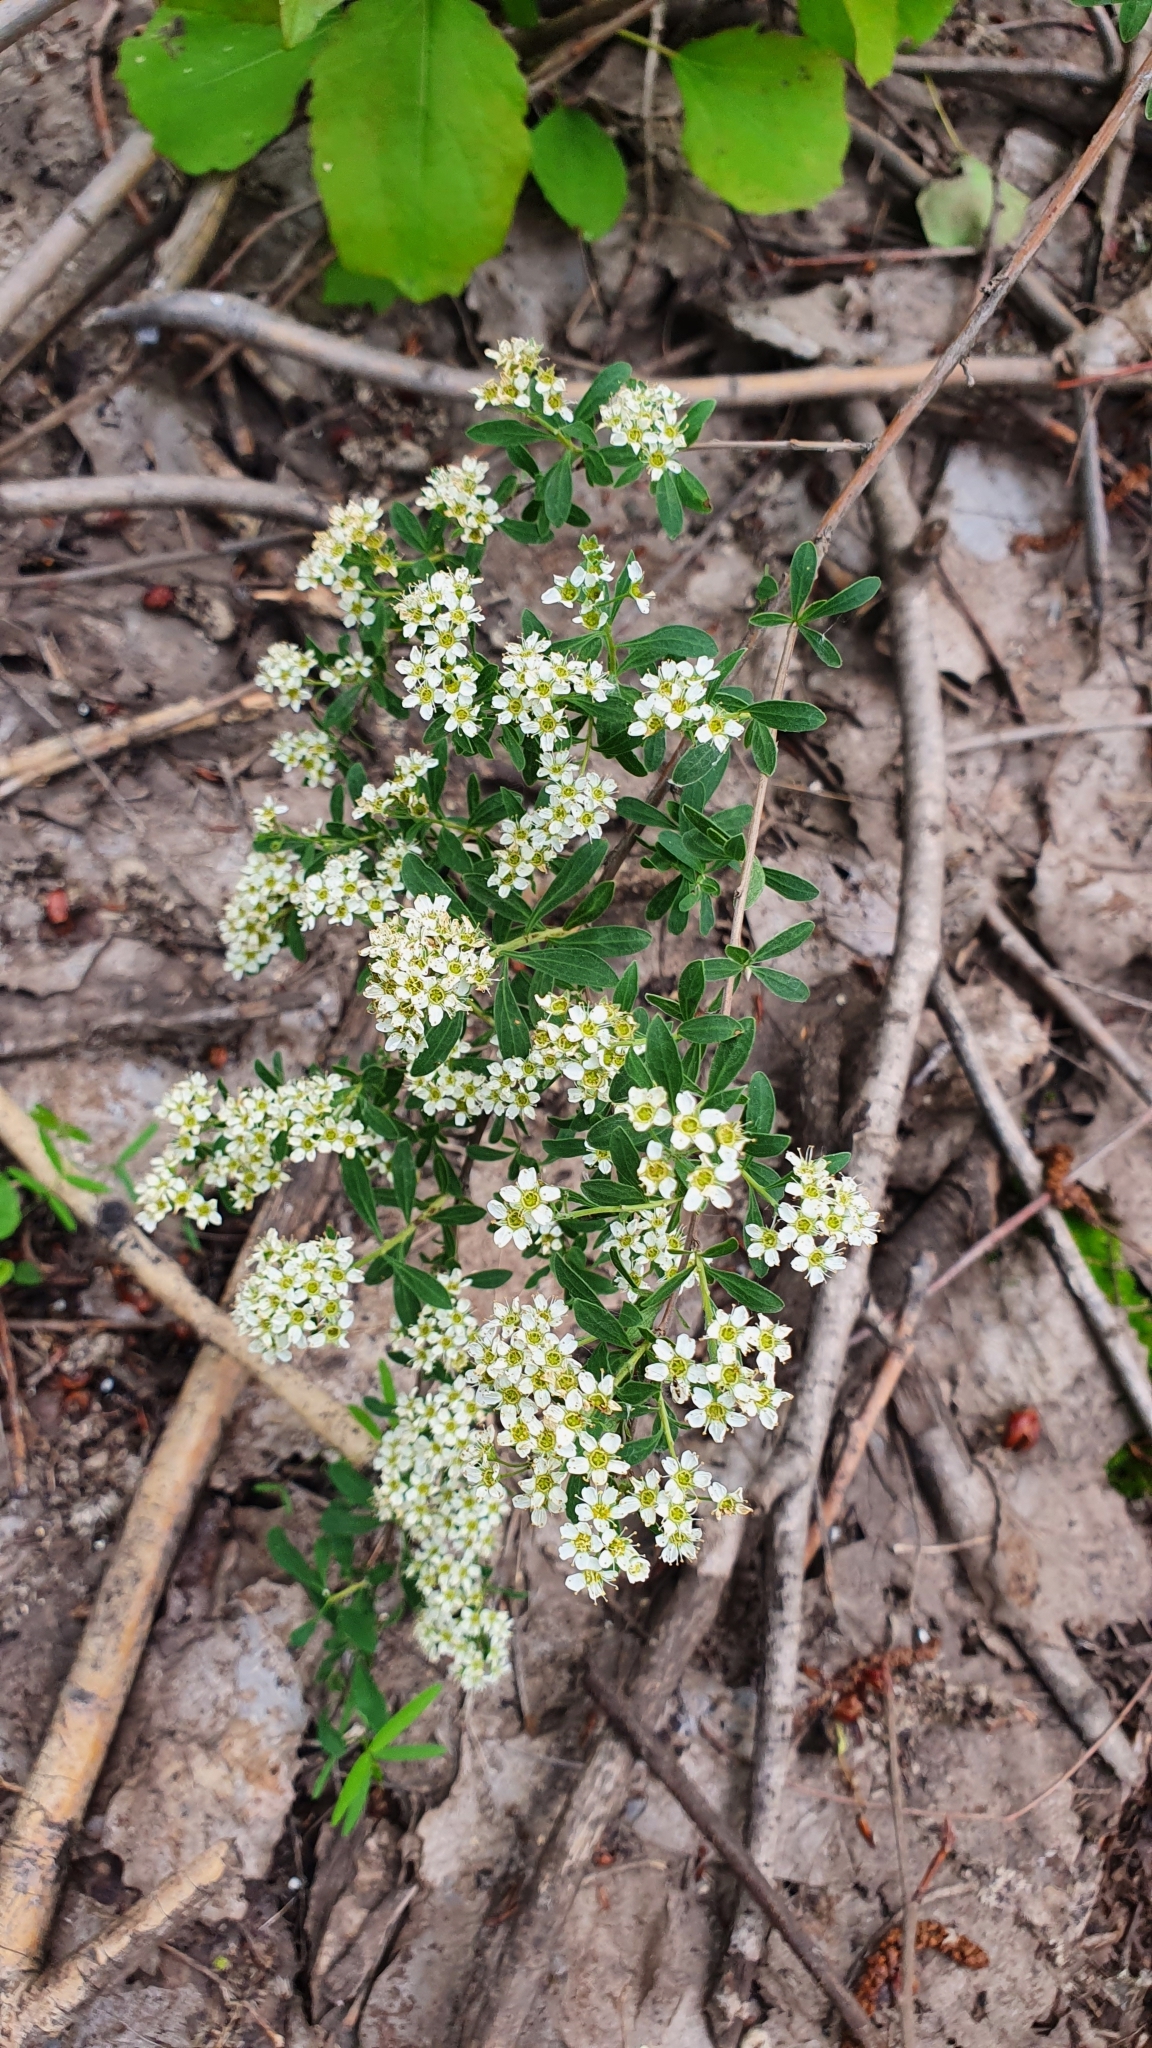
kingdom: Plantae
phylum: Tracheophyta
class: Magnoliopsida
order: Rosales
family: Rosaceae
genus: Spiraea
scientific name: Spiraea crenata
